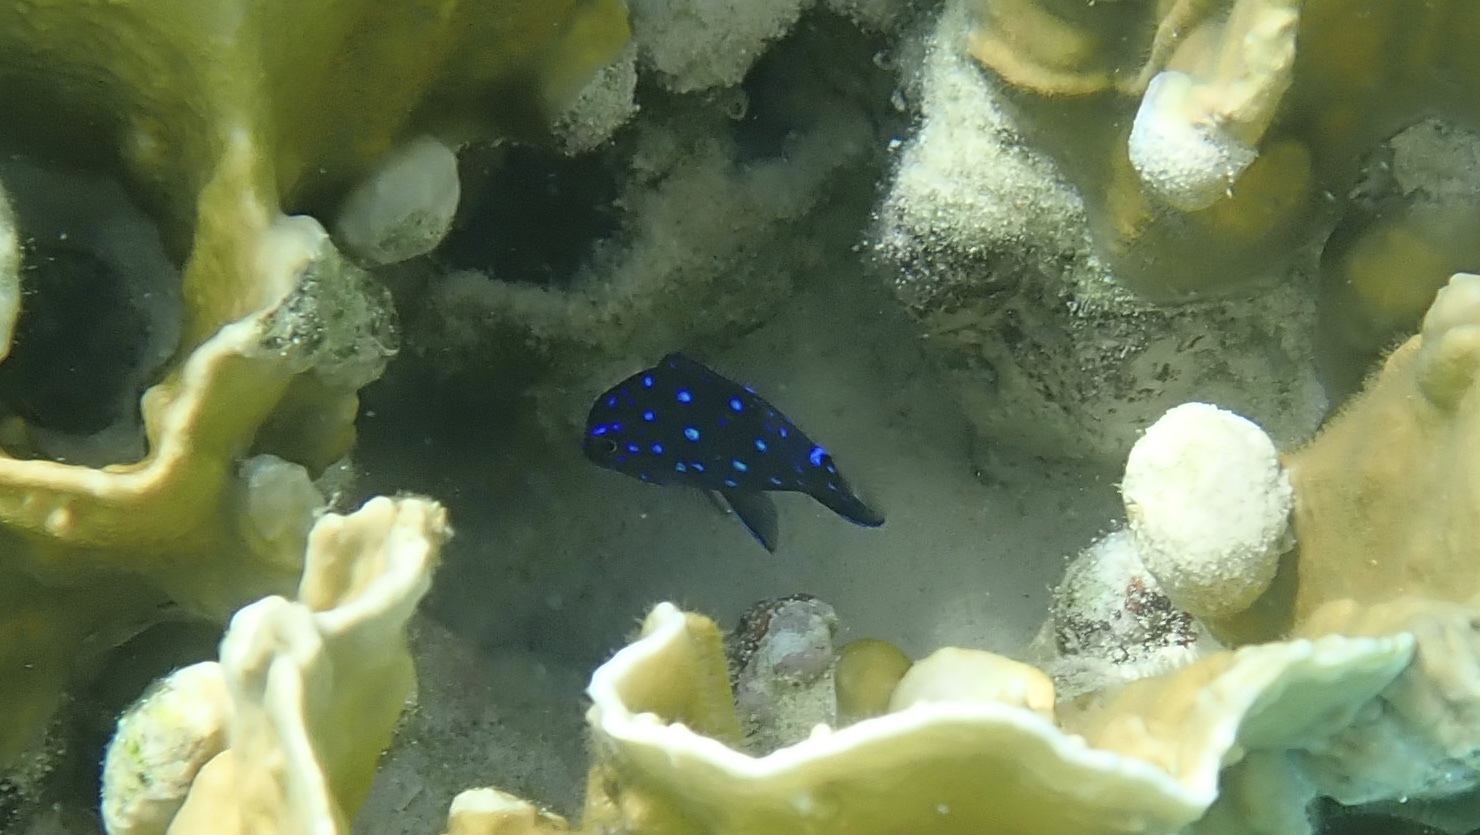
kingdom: Animalia
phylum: Chordata
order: Perciformes
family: Pomacentridae
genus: Microspathodon
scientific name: Microspathodon chrysurus
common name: Yellowtail damselfish
